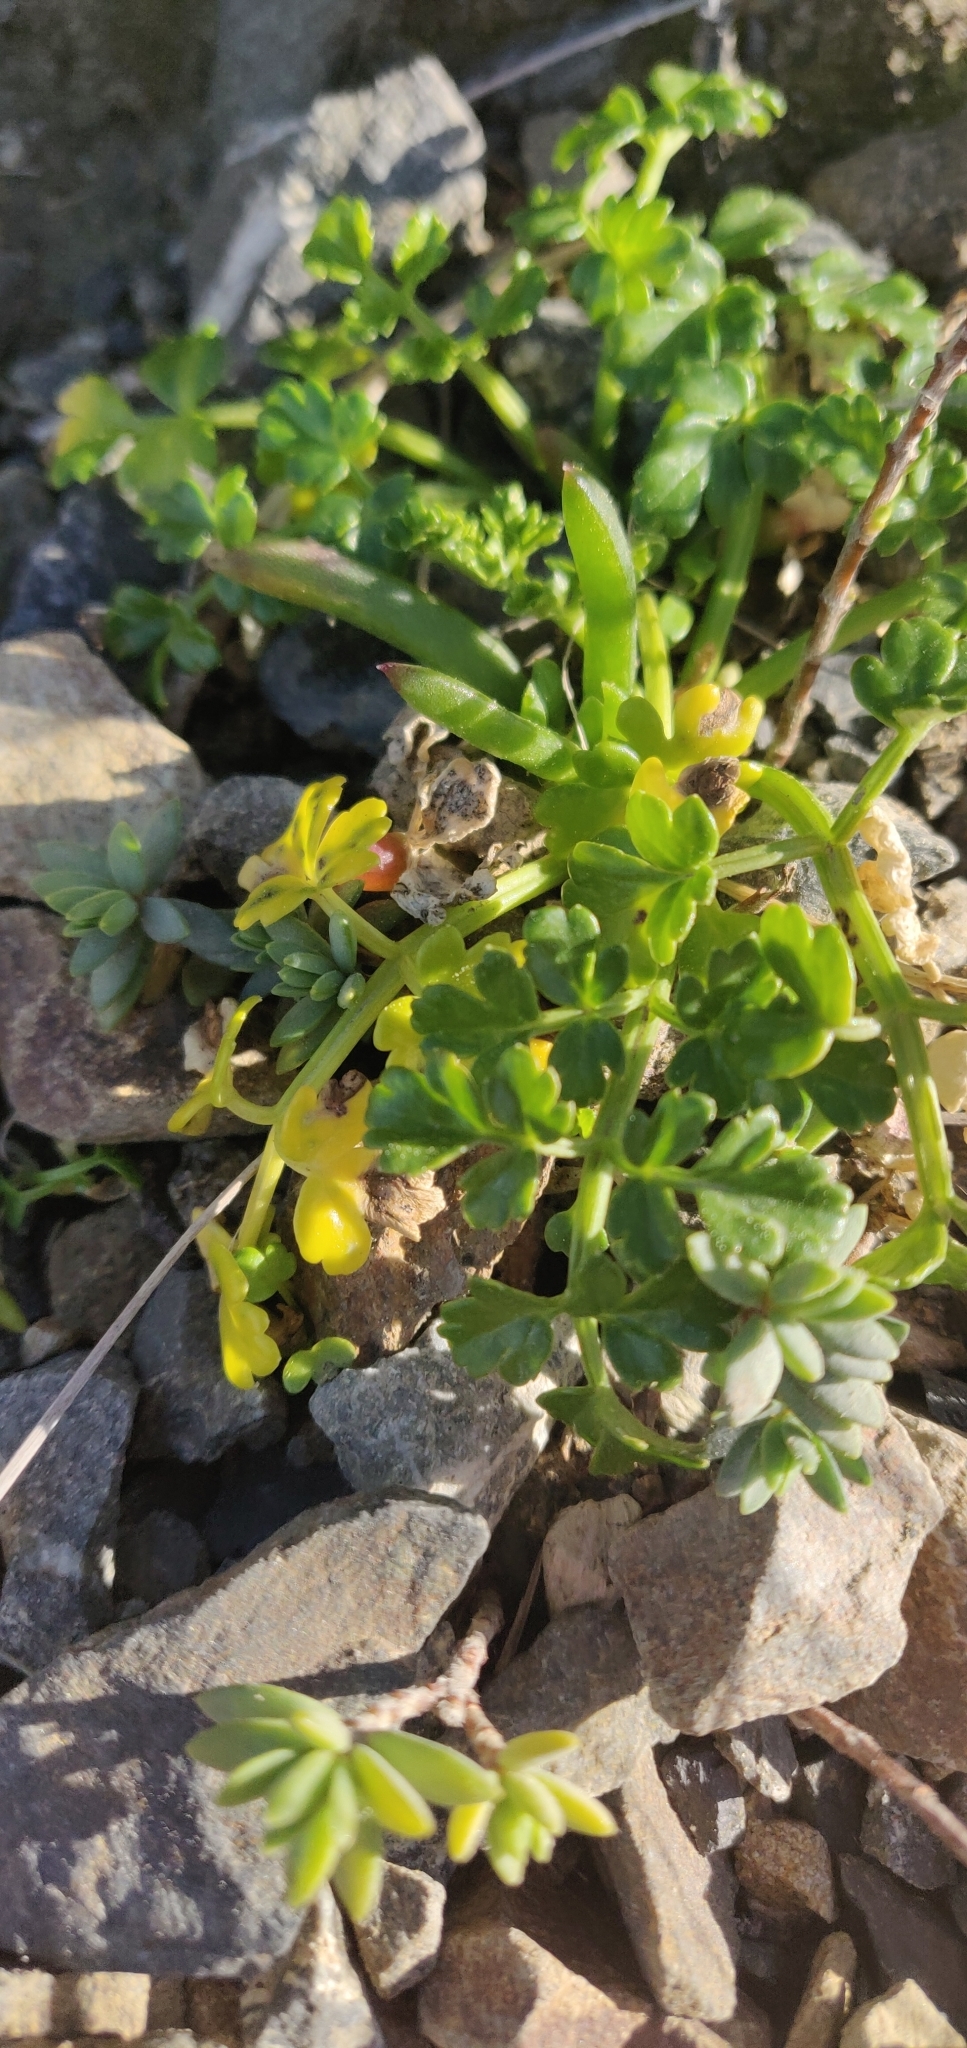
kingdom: Plantae
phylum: Tracheophyta
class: Magnoliopsida
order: Apiales
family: Apiaceae
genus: Apium
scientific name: Apium prostratum
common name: Prostrate marshwort
